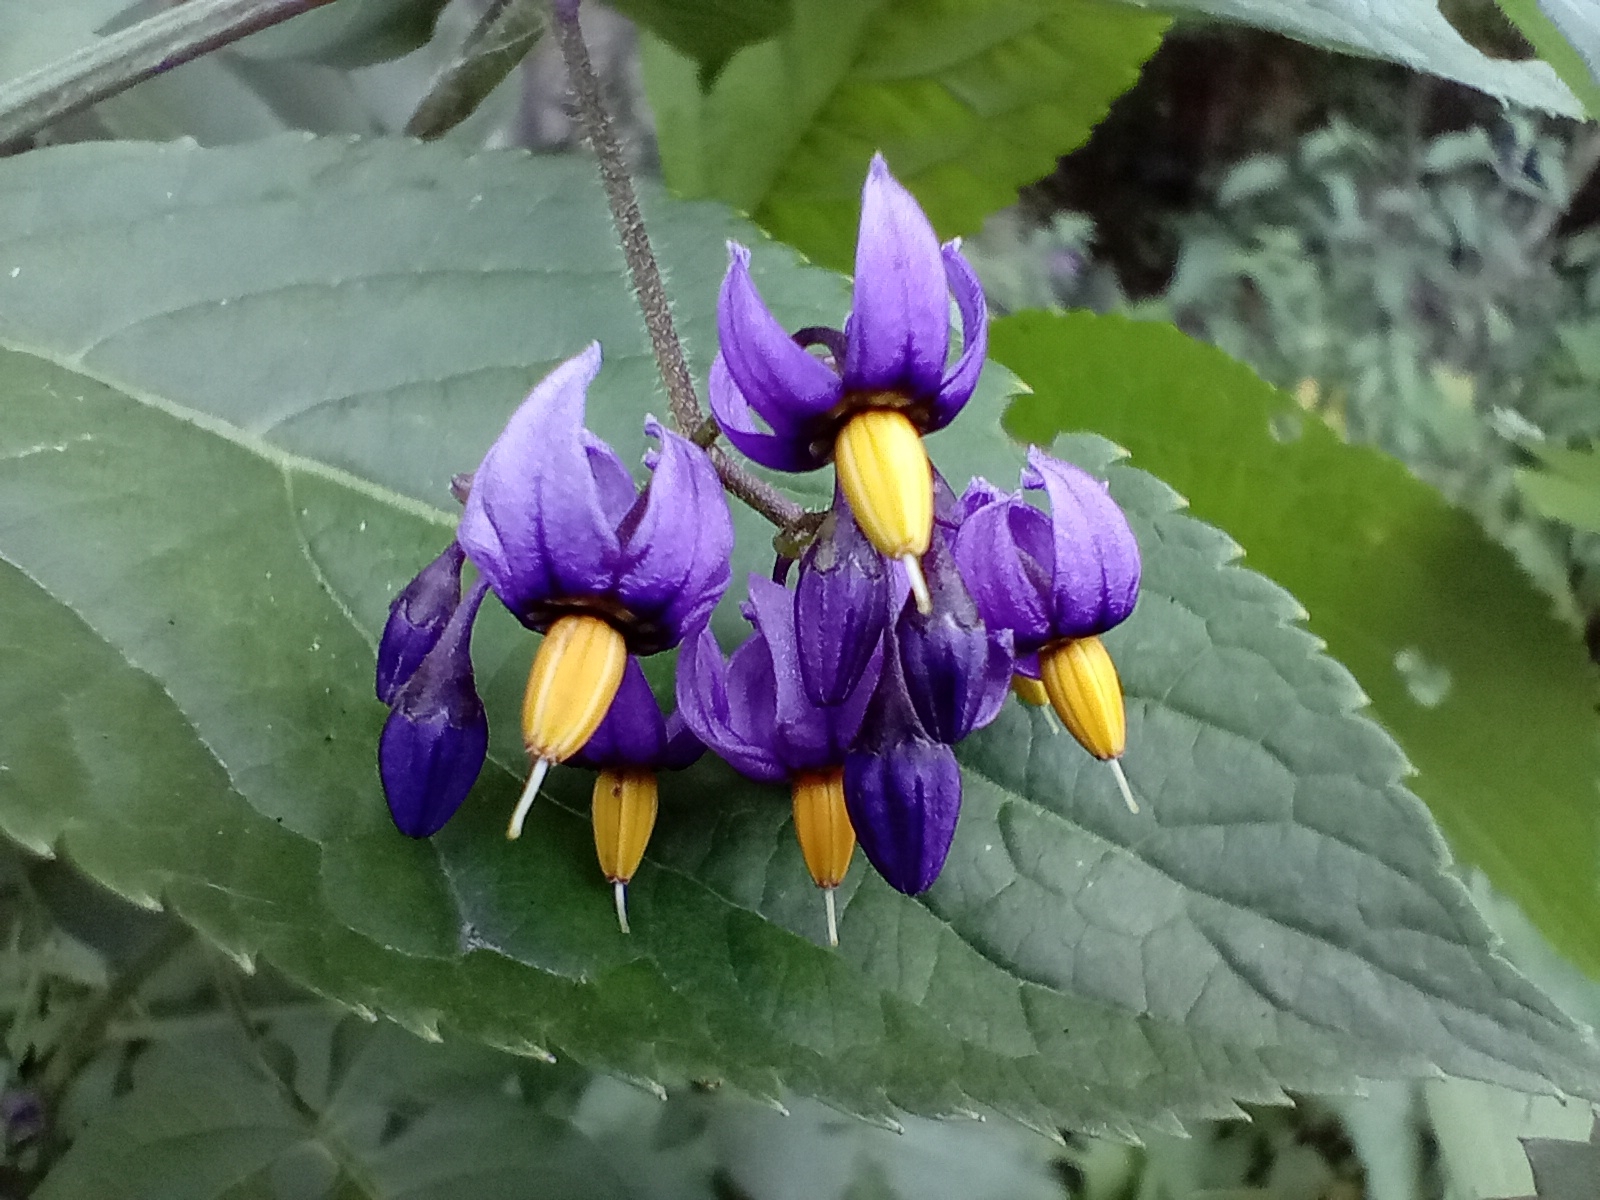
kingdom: Plantae
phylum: Tracheophyta
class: Magnoliopsida
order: Solanales
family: Solanaceae
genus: Solanum
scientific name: Solanum dulcamara
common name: Climbing nightshade
